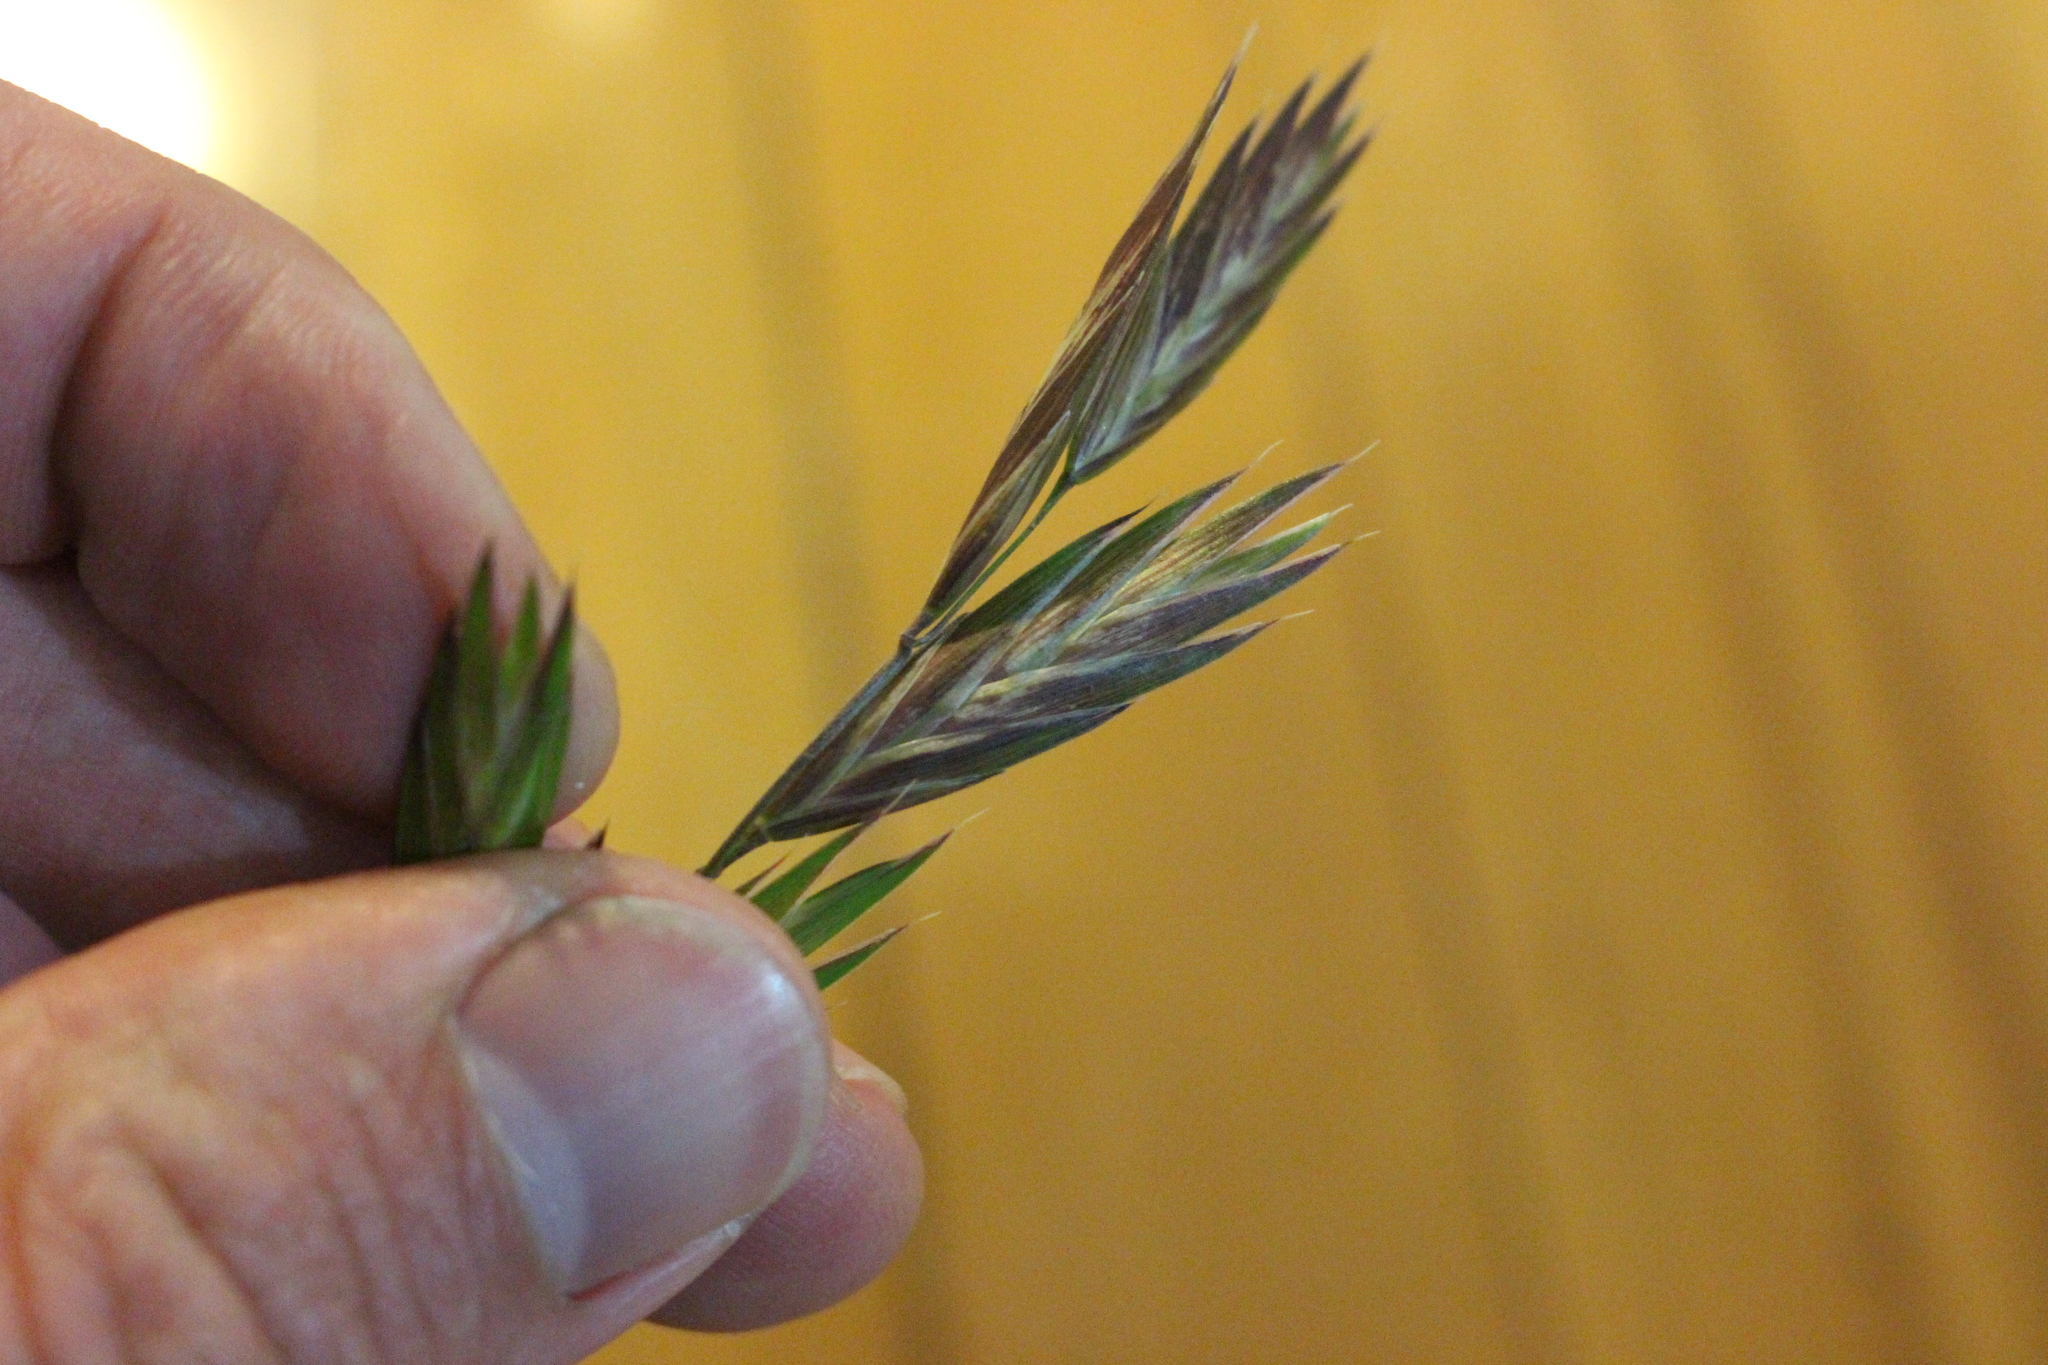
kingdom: Plantae
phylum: Tracheophyta
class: Liliopsida
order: Poales
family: Poaceae
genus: Bromus
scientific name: Bromus catharticus
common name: Rescuegrass
